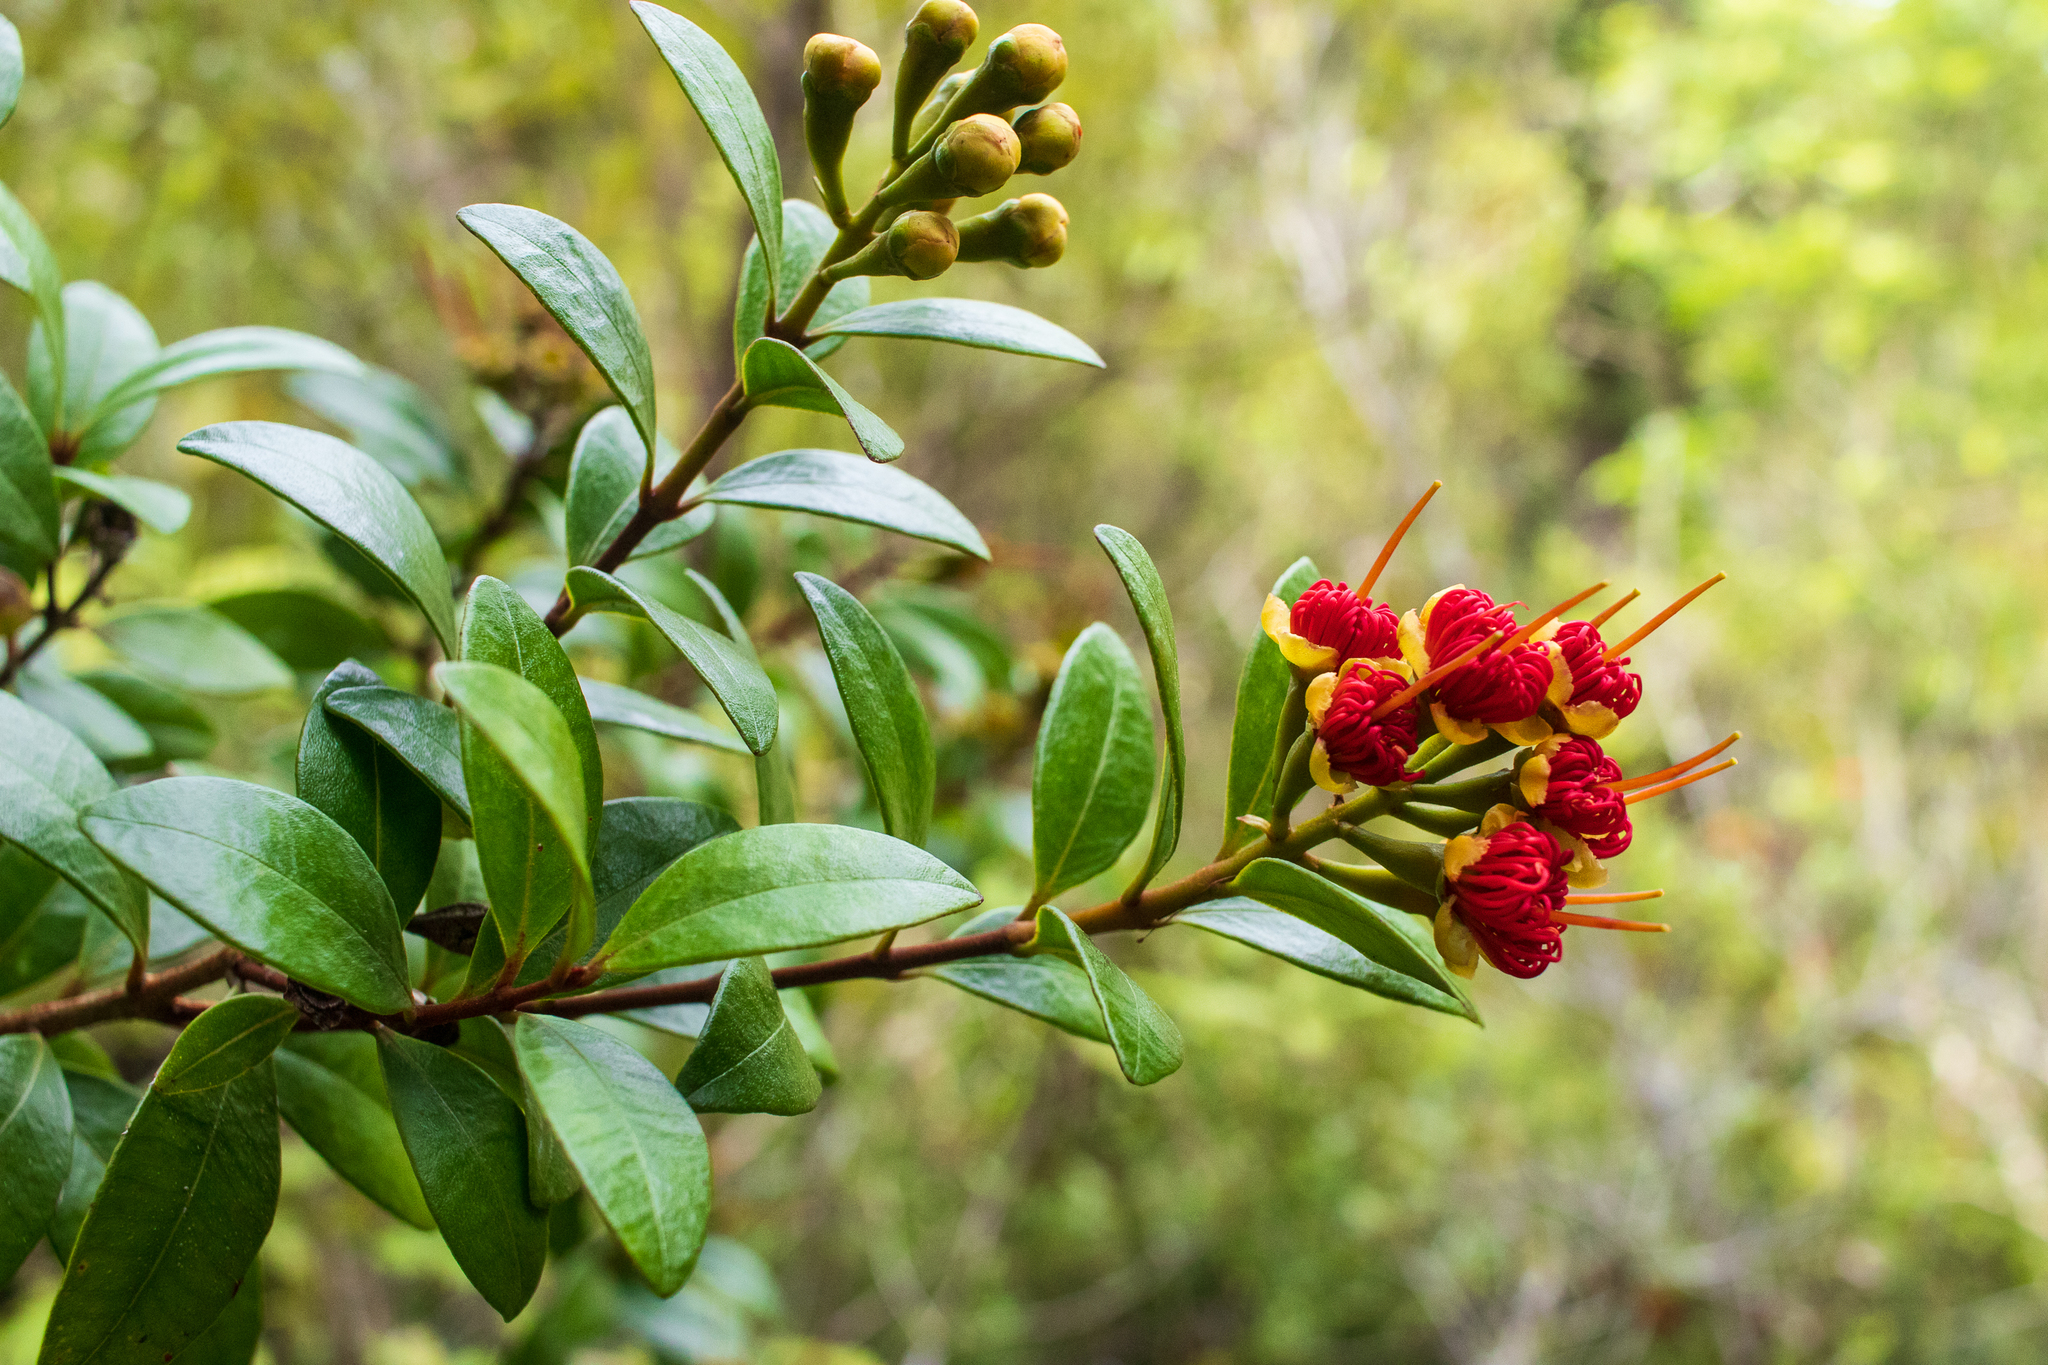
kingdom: Plantae
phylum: Tracheophyta
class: Magnoliopsida
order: Myrtales
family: Myrtaceae
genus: Metrosideros
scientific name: Metrosideros fulgens
